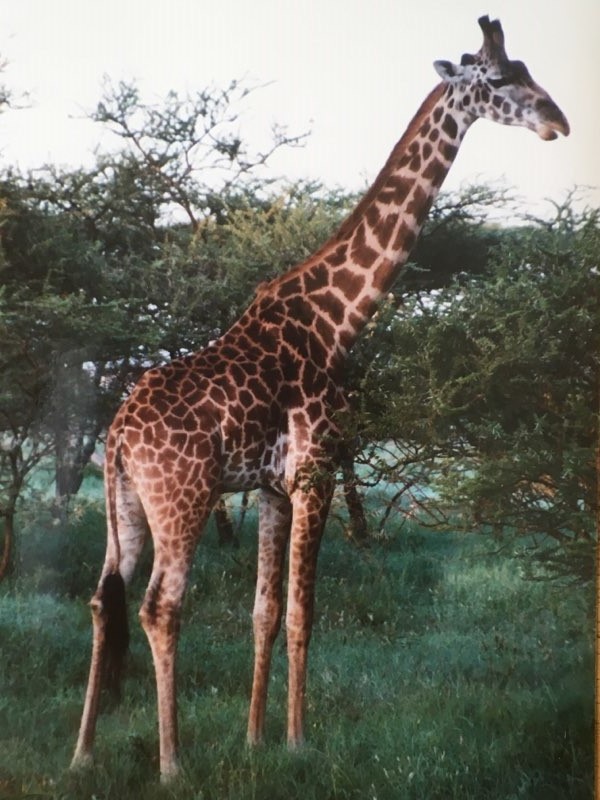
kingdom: Animalia
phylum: Chordata
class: Mammalia
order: Artiodactyla
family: Giraffidae
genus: Giraffa
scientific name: Giraffa tippelskirchi
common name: Masai giraffe
